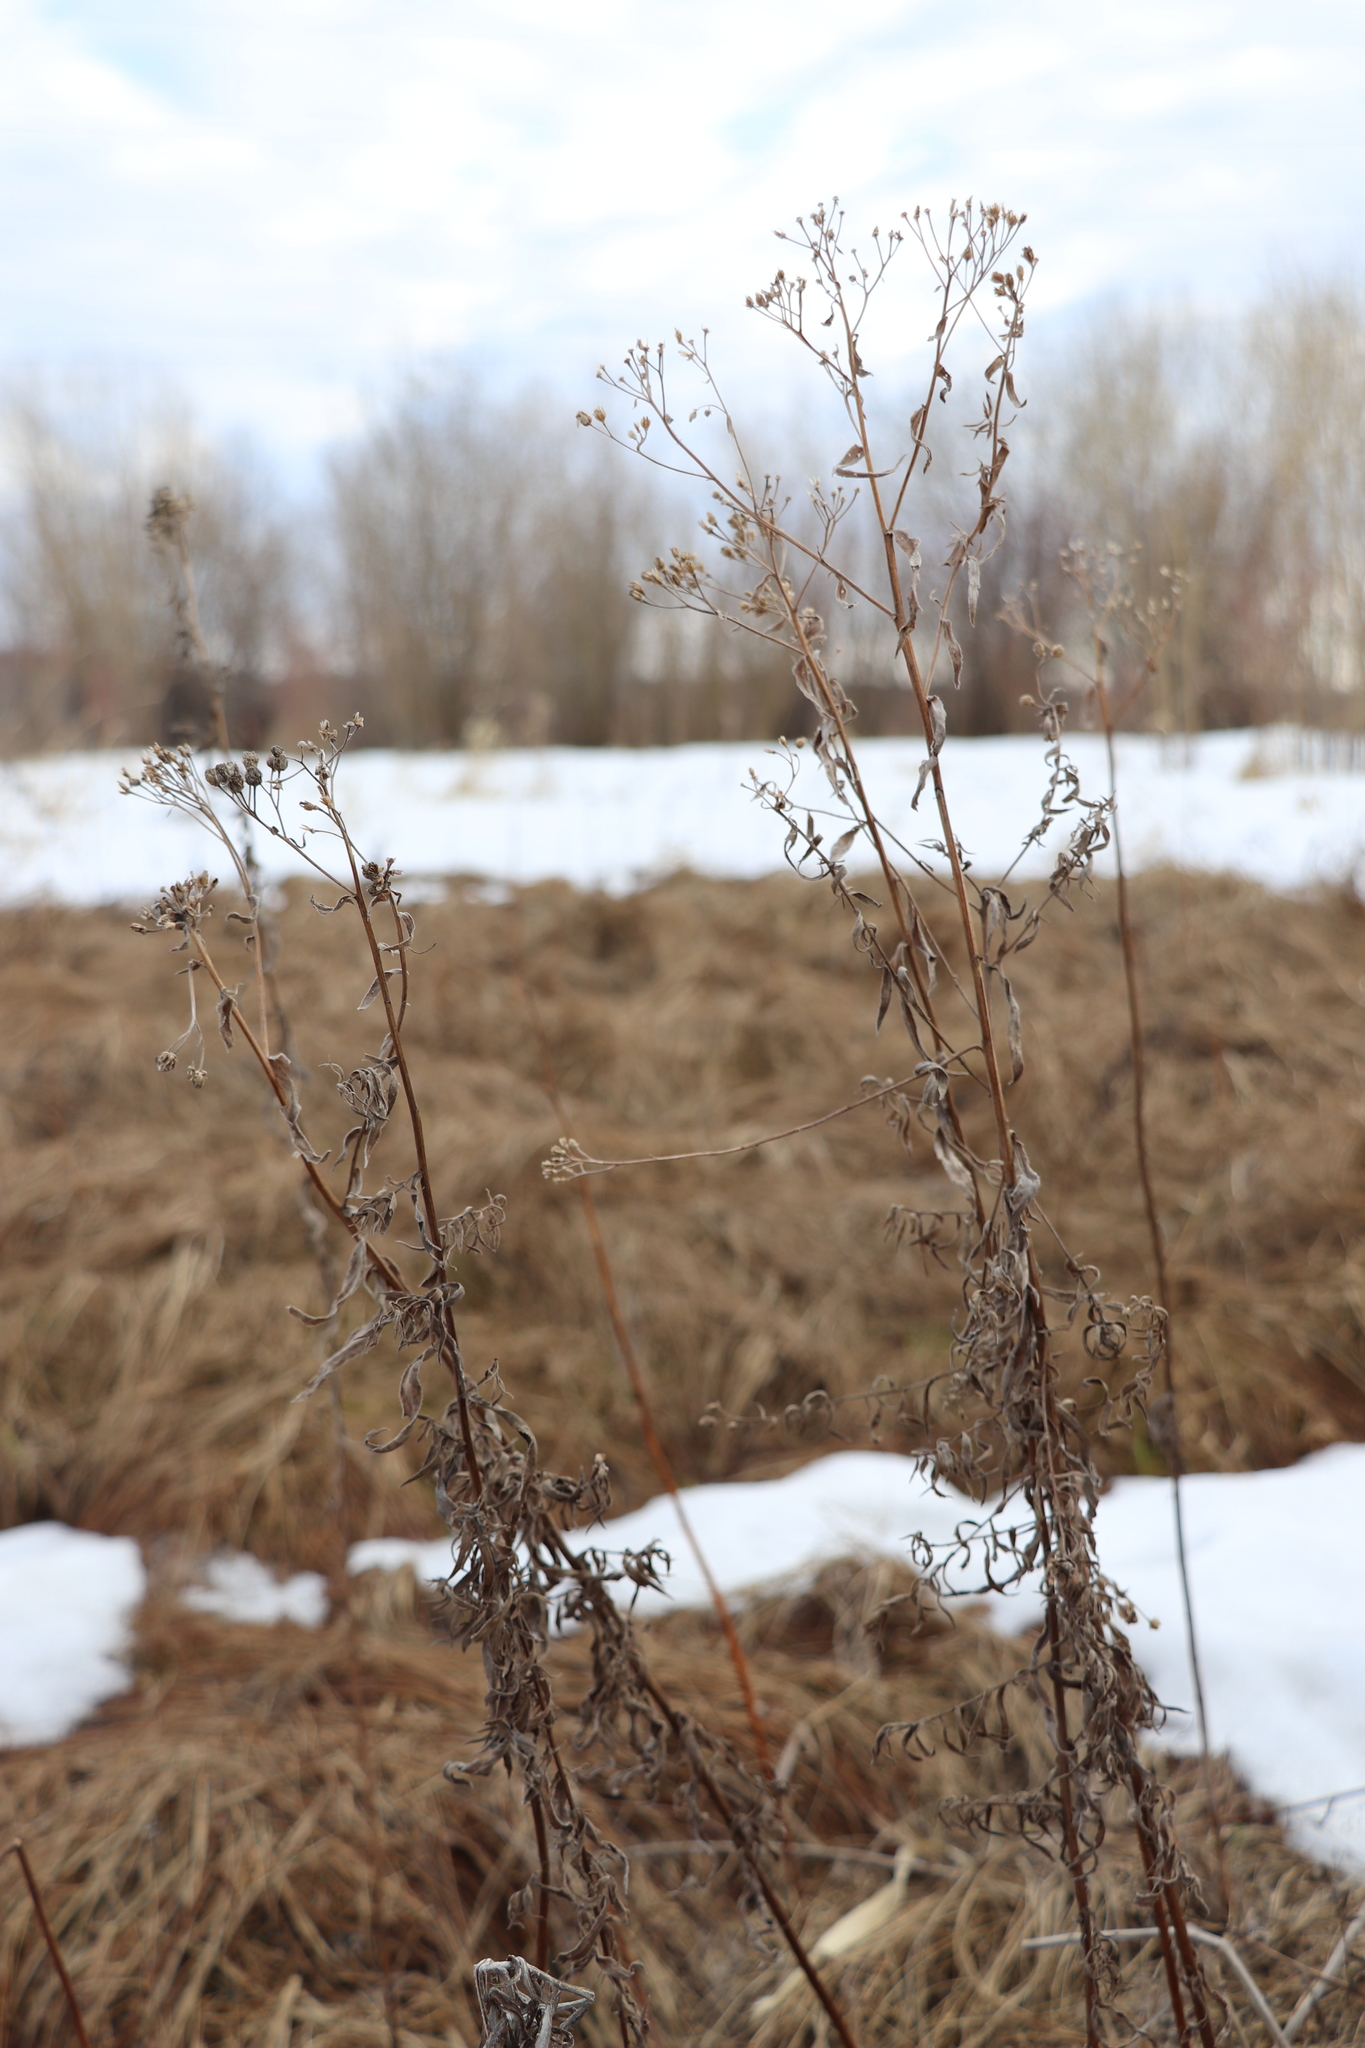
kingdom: Plantae
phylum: Tracheophyta
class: Magnoliopsida
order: Asterales
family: Asteraceae
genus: Achillea
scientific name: Achillea salicifolia
